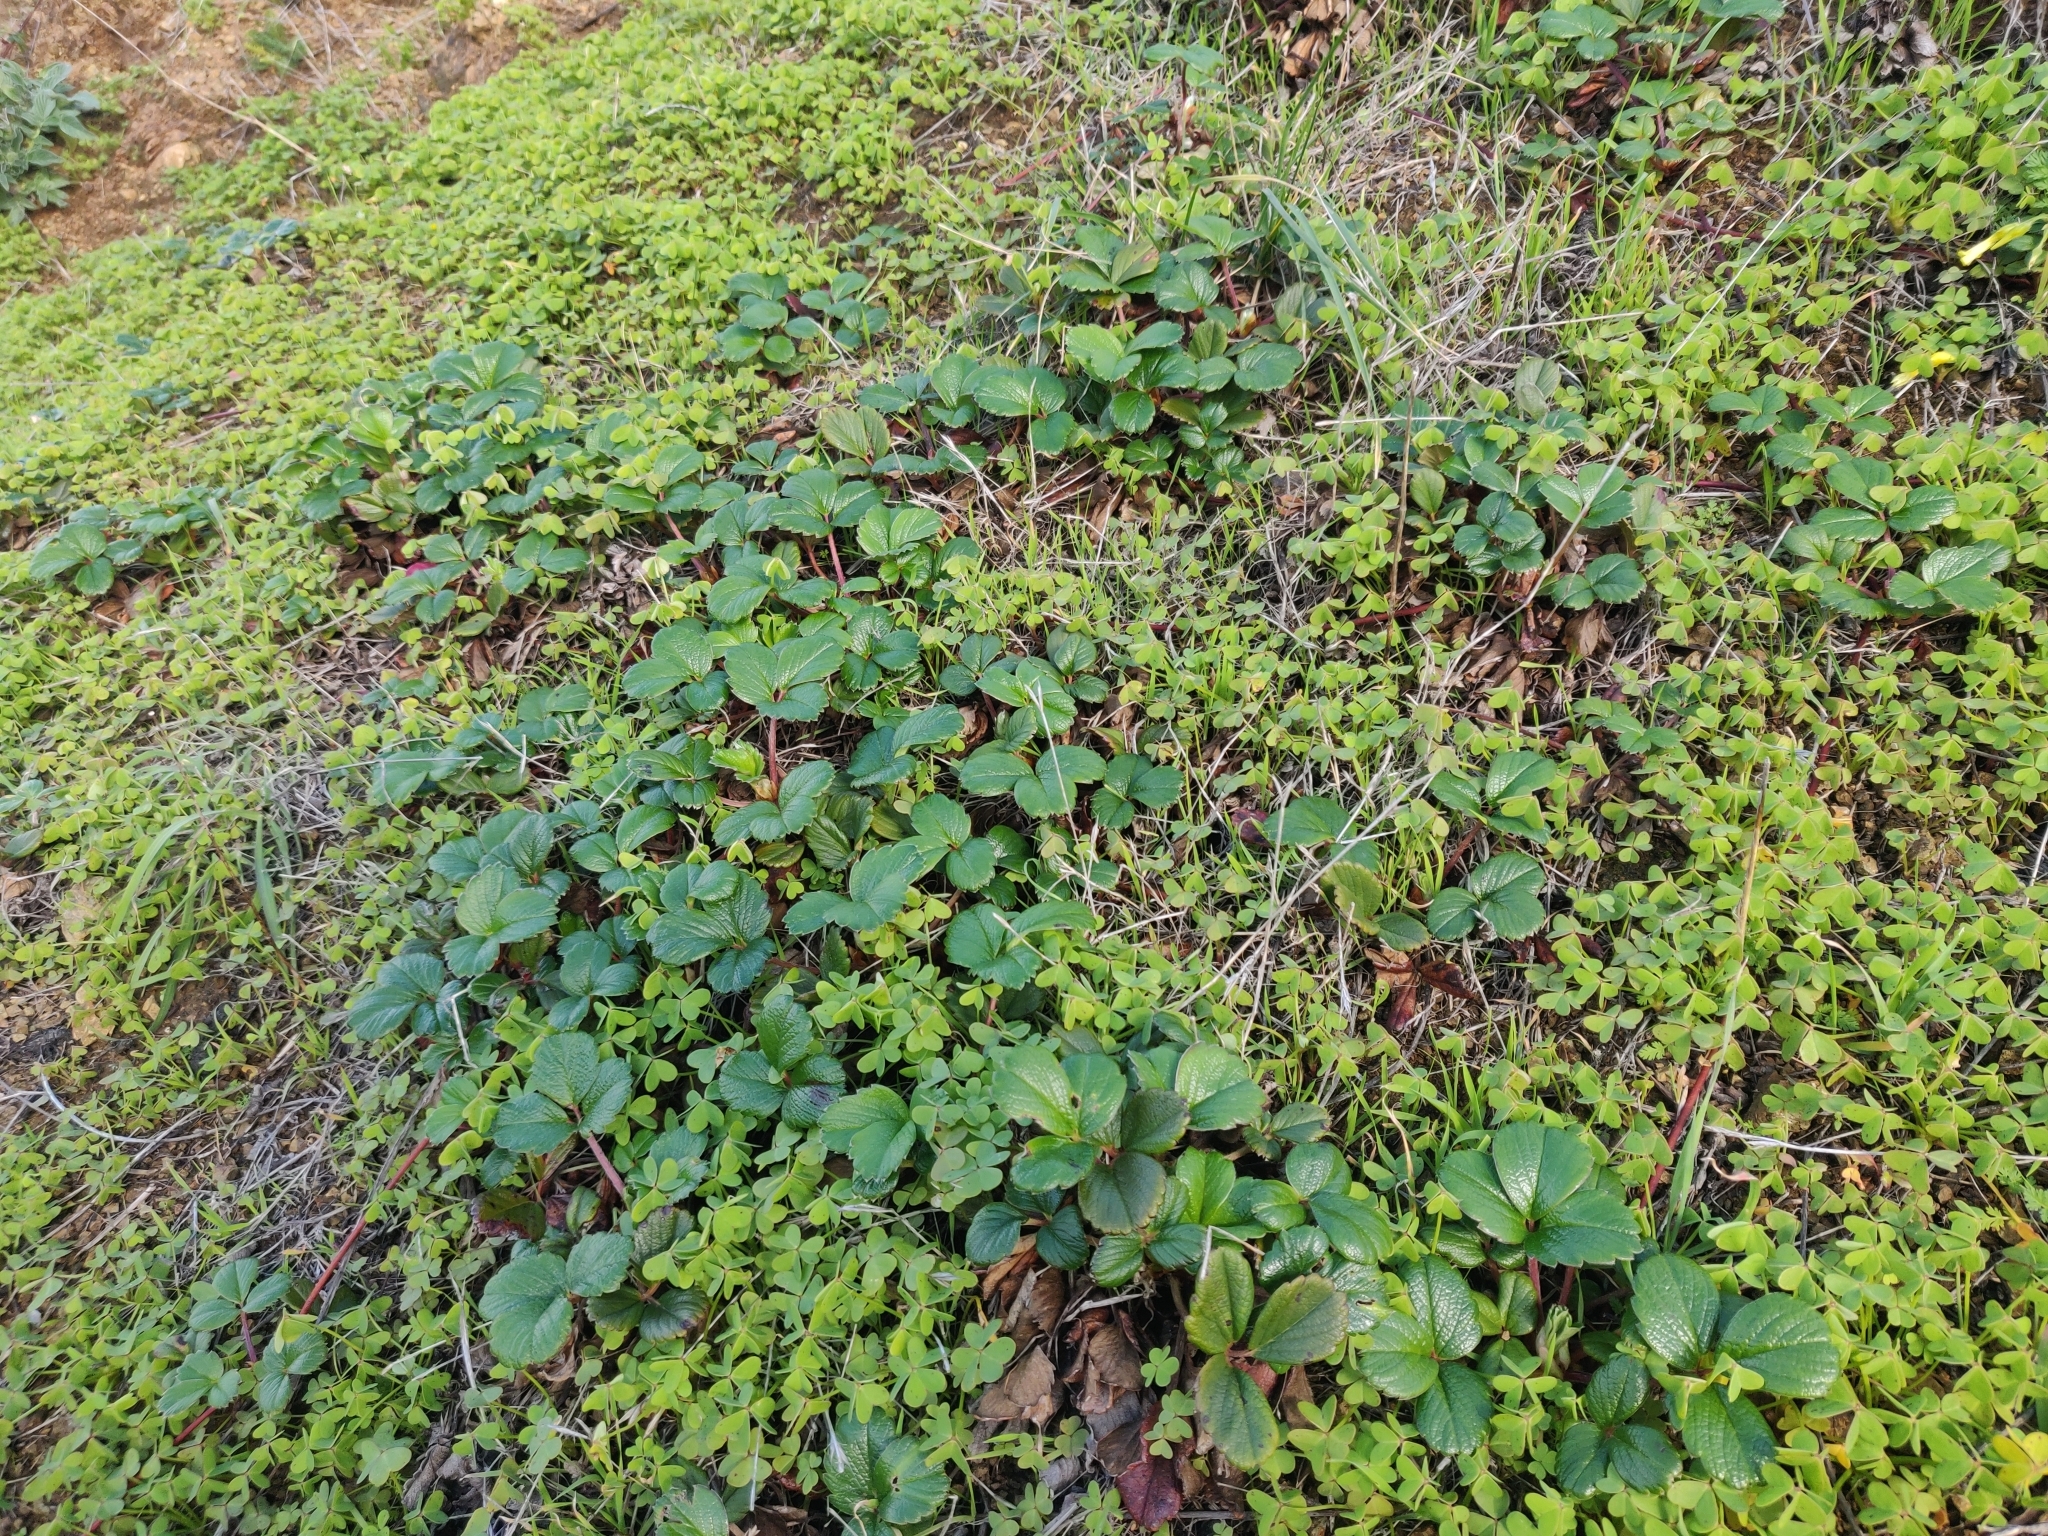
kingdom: Plantae
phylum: Tracheophyta
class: Magnoliopsida
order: Rosales
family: Rosaceae
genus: Fragaria
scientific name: Fragaria chiloensis
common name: Beach strawberry
